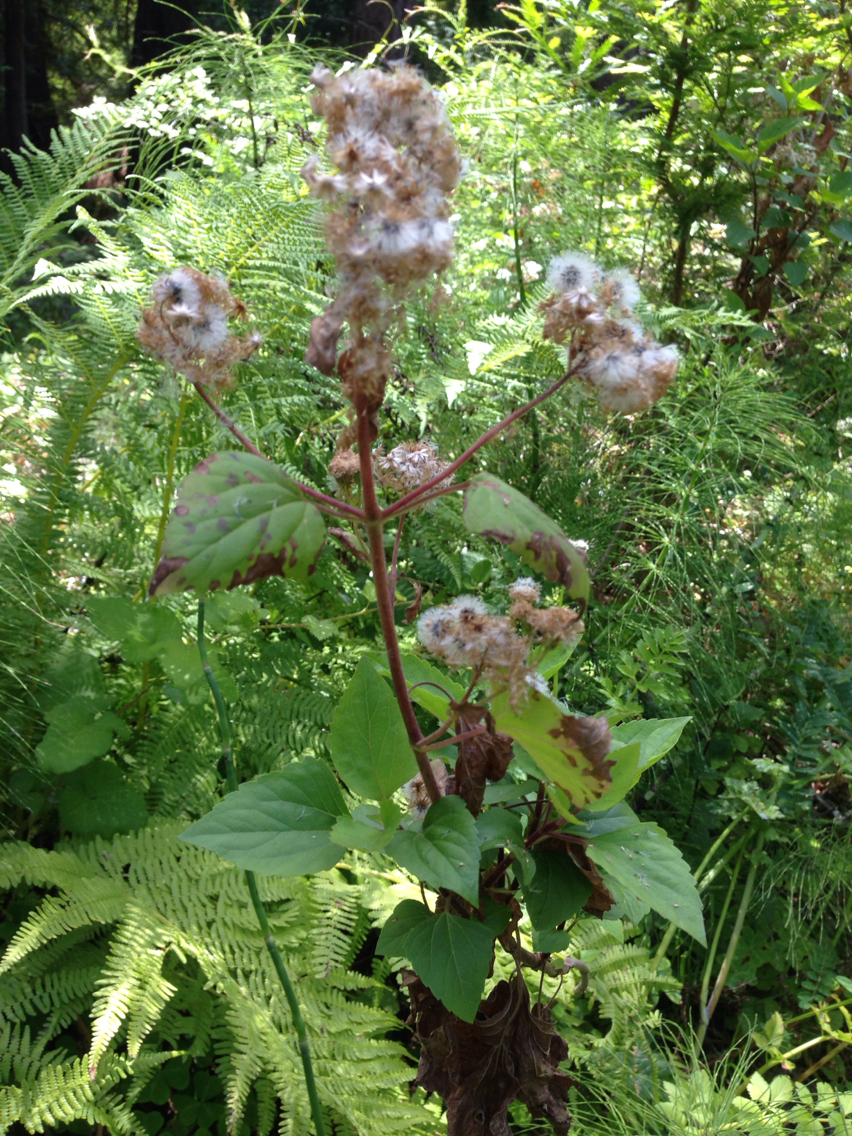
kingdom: Plantae
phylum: Tracheophyta
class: Magnoliopsida
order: Asterales
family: Asteraceae
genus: Ageratina
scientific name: Ageratina adenophora
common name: Sticky snakeroot
